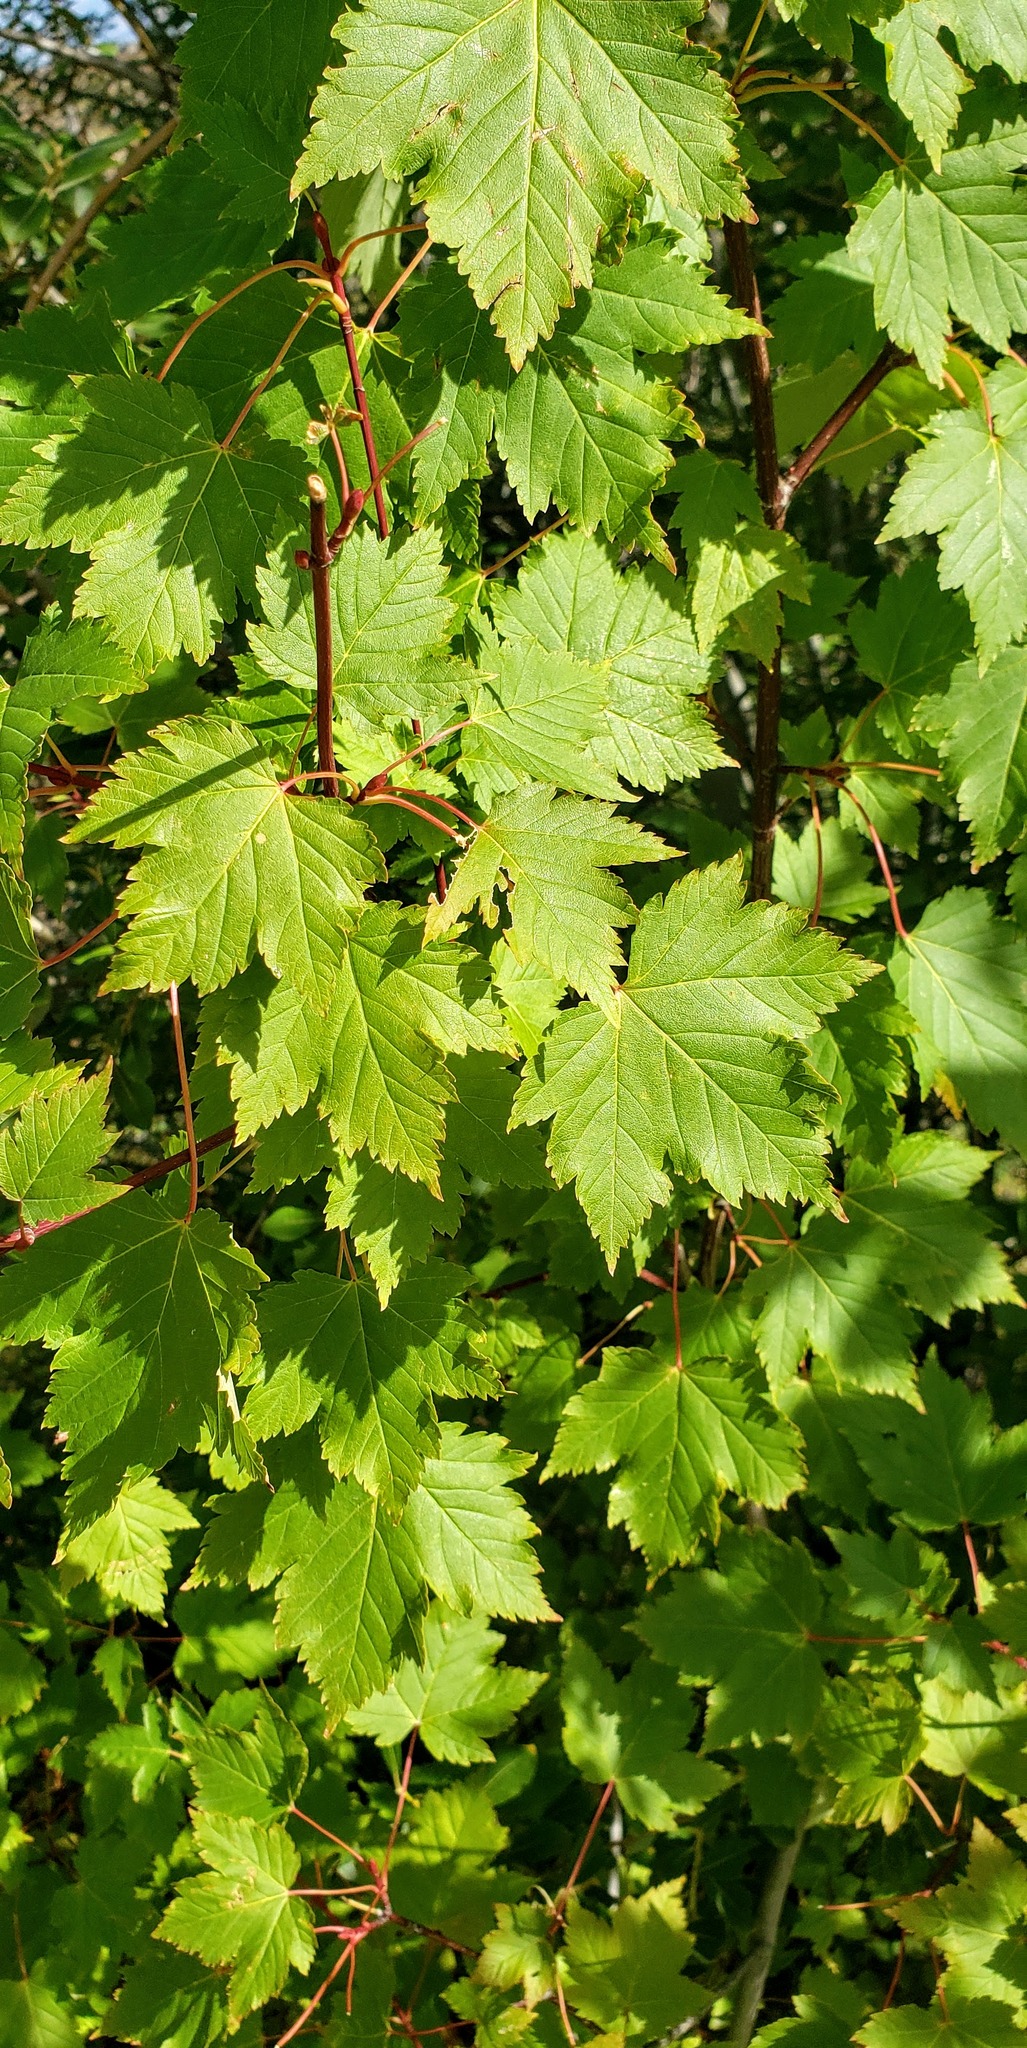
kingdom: Plantae
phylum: Tracheophyta
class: Magnoliopsida
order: Sapindales
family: Sapindaceae
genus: Acer
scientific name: Acer glabrum
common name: Rocky mountain maple
